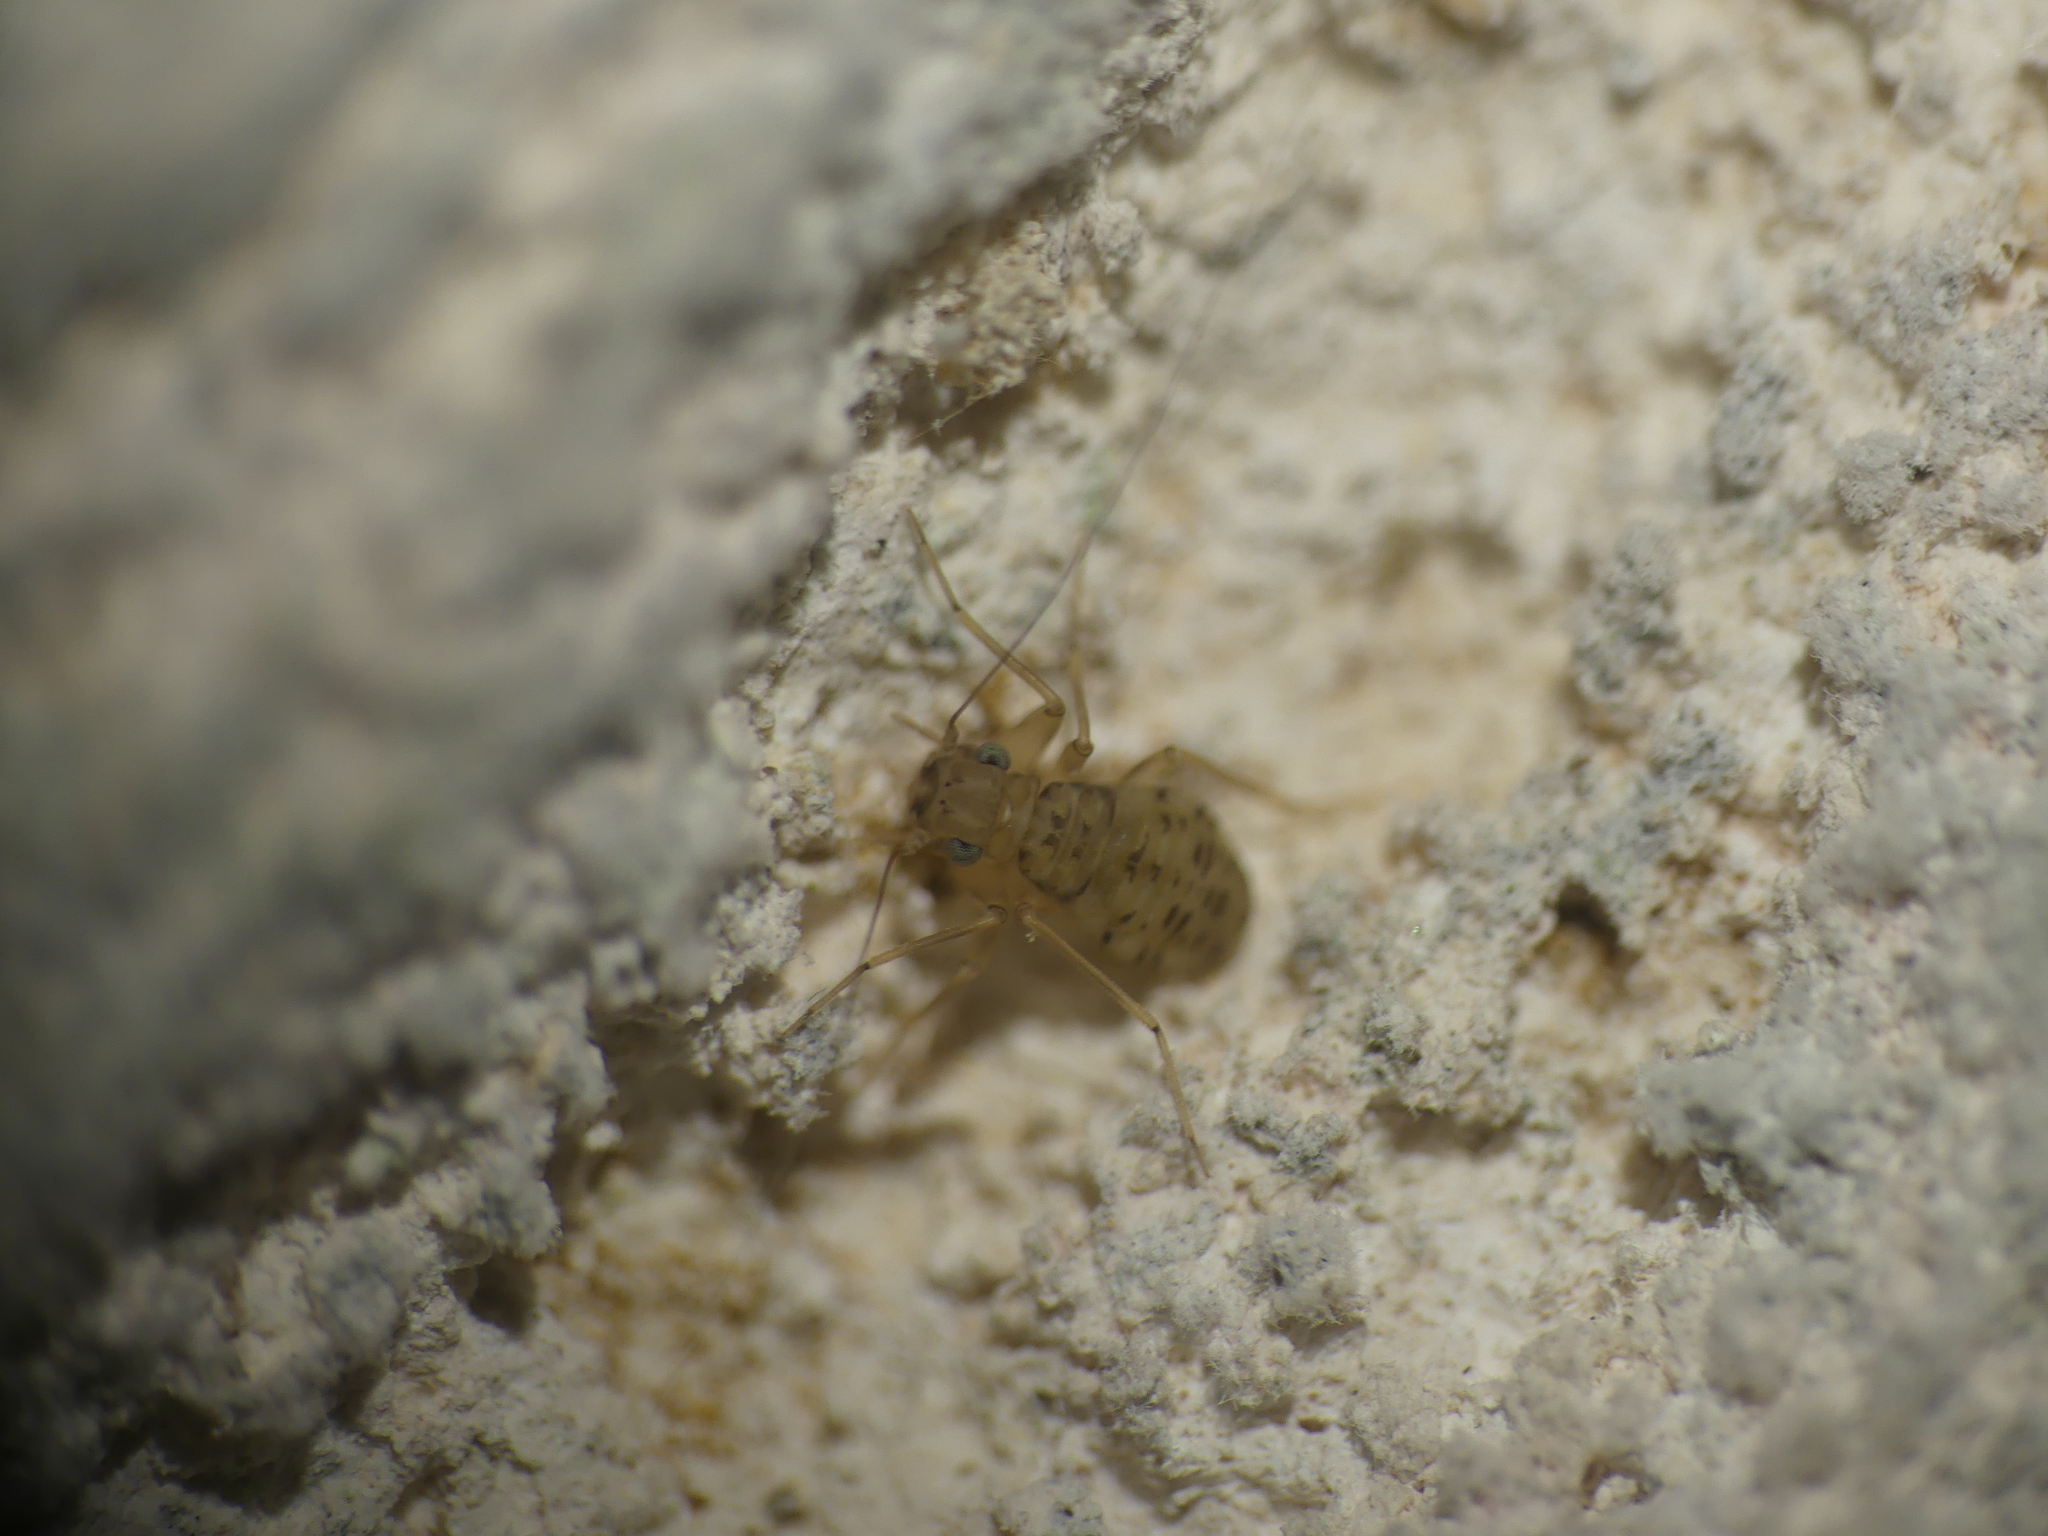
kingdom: Animalia
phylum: Arthropoda
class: Insecta
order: Psocodea
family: Prionoglarididae
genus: Prionoglaris
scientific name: Prionoglaris stygia
